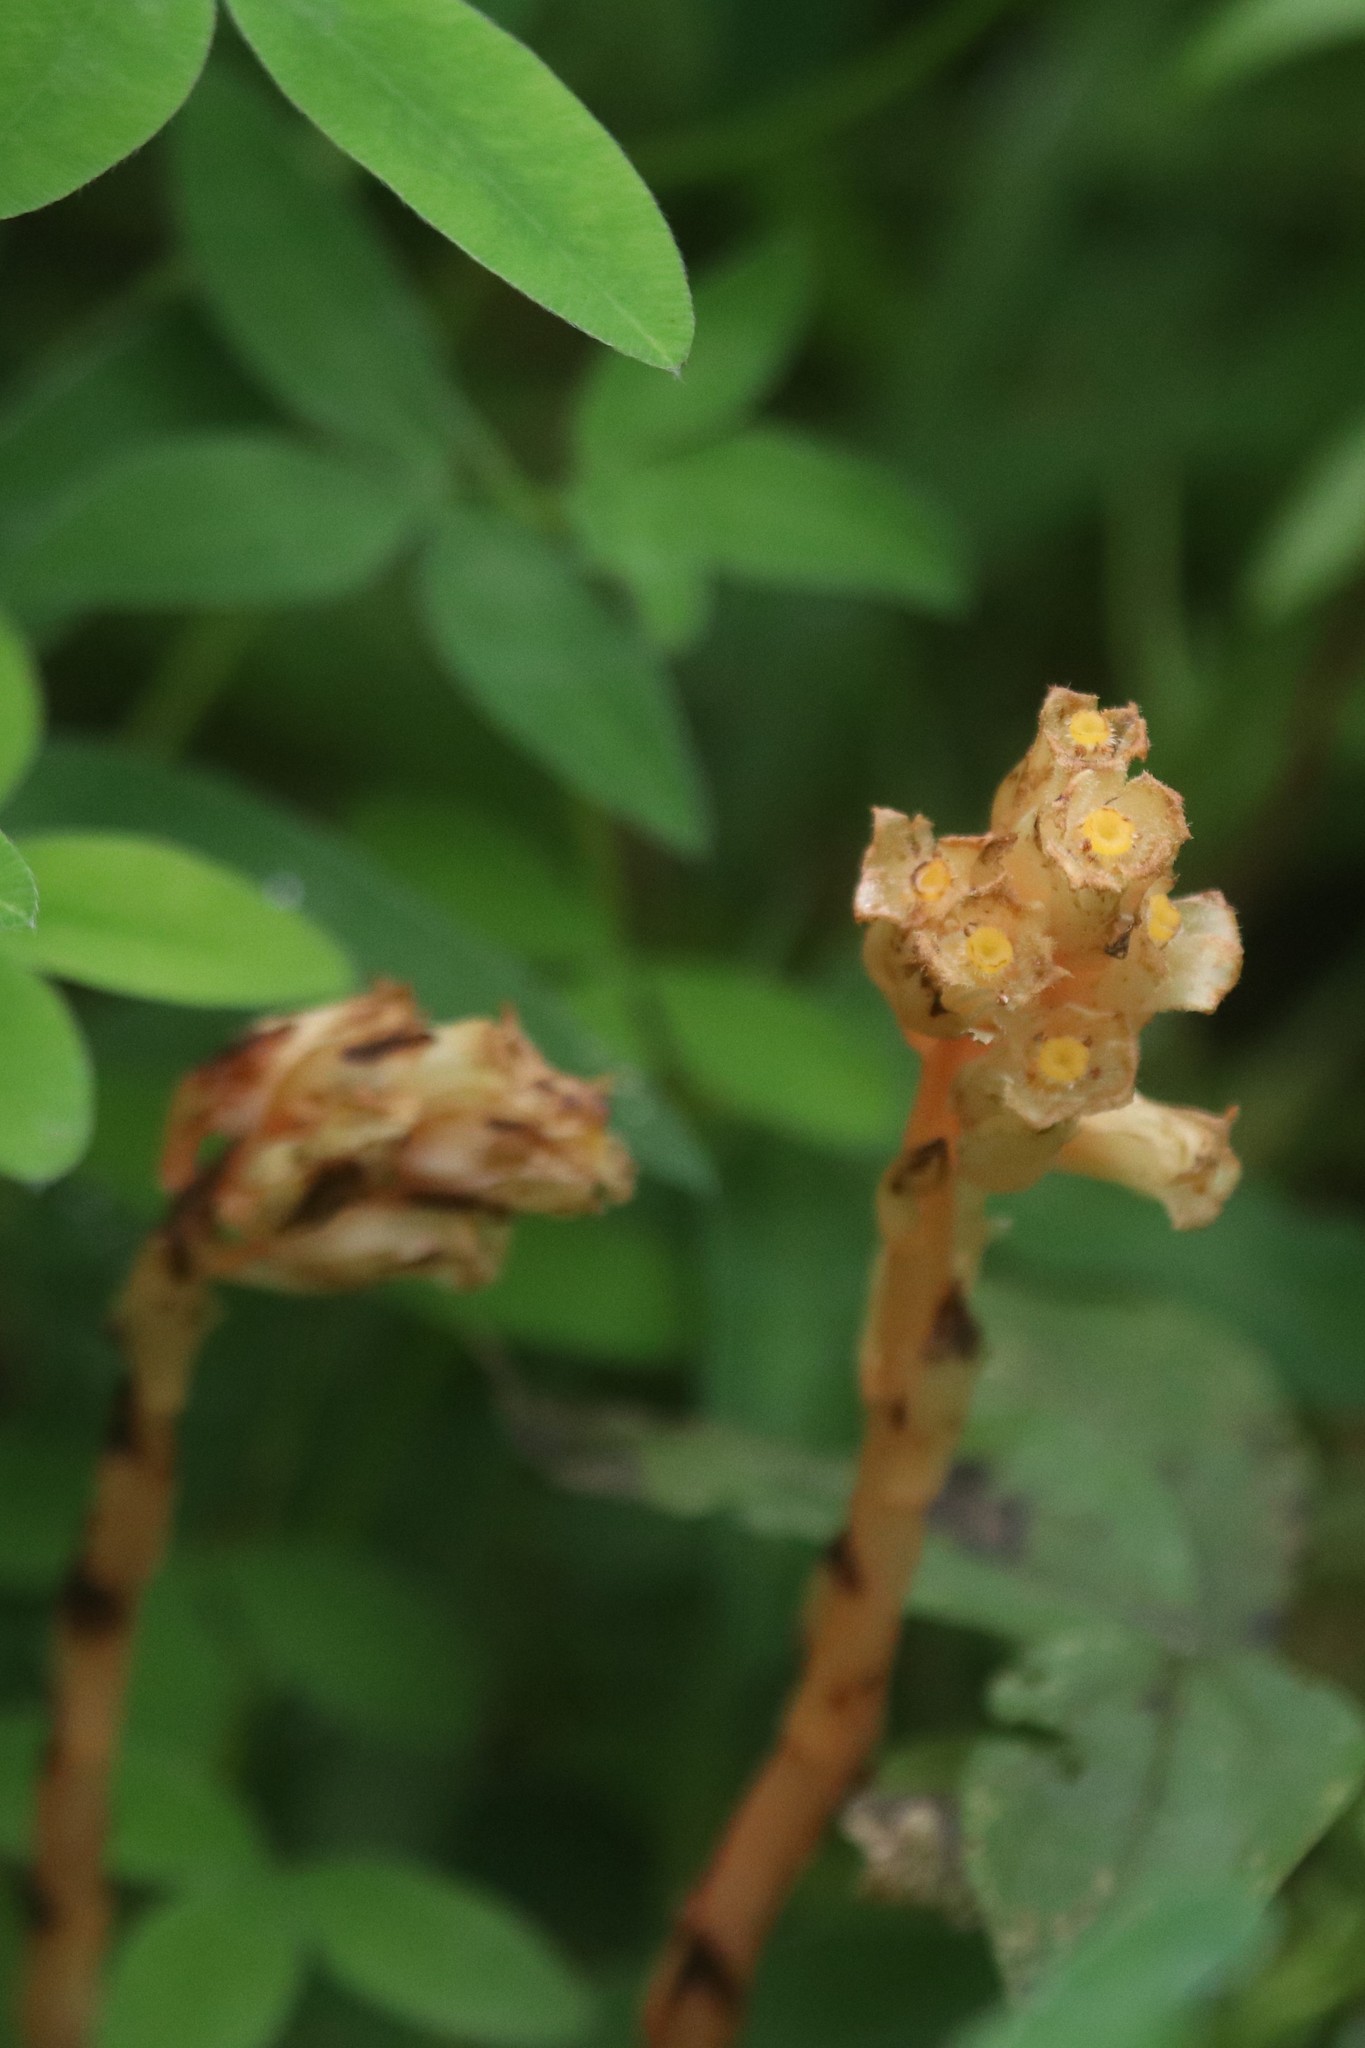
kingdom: Plantae
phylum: Tracheophyta
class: Magnoliopsida
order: Ericales
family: Ericaceae
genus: Hypopitys
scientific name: Hypopitys monotropa
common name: Yellow bird's-nest
